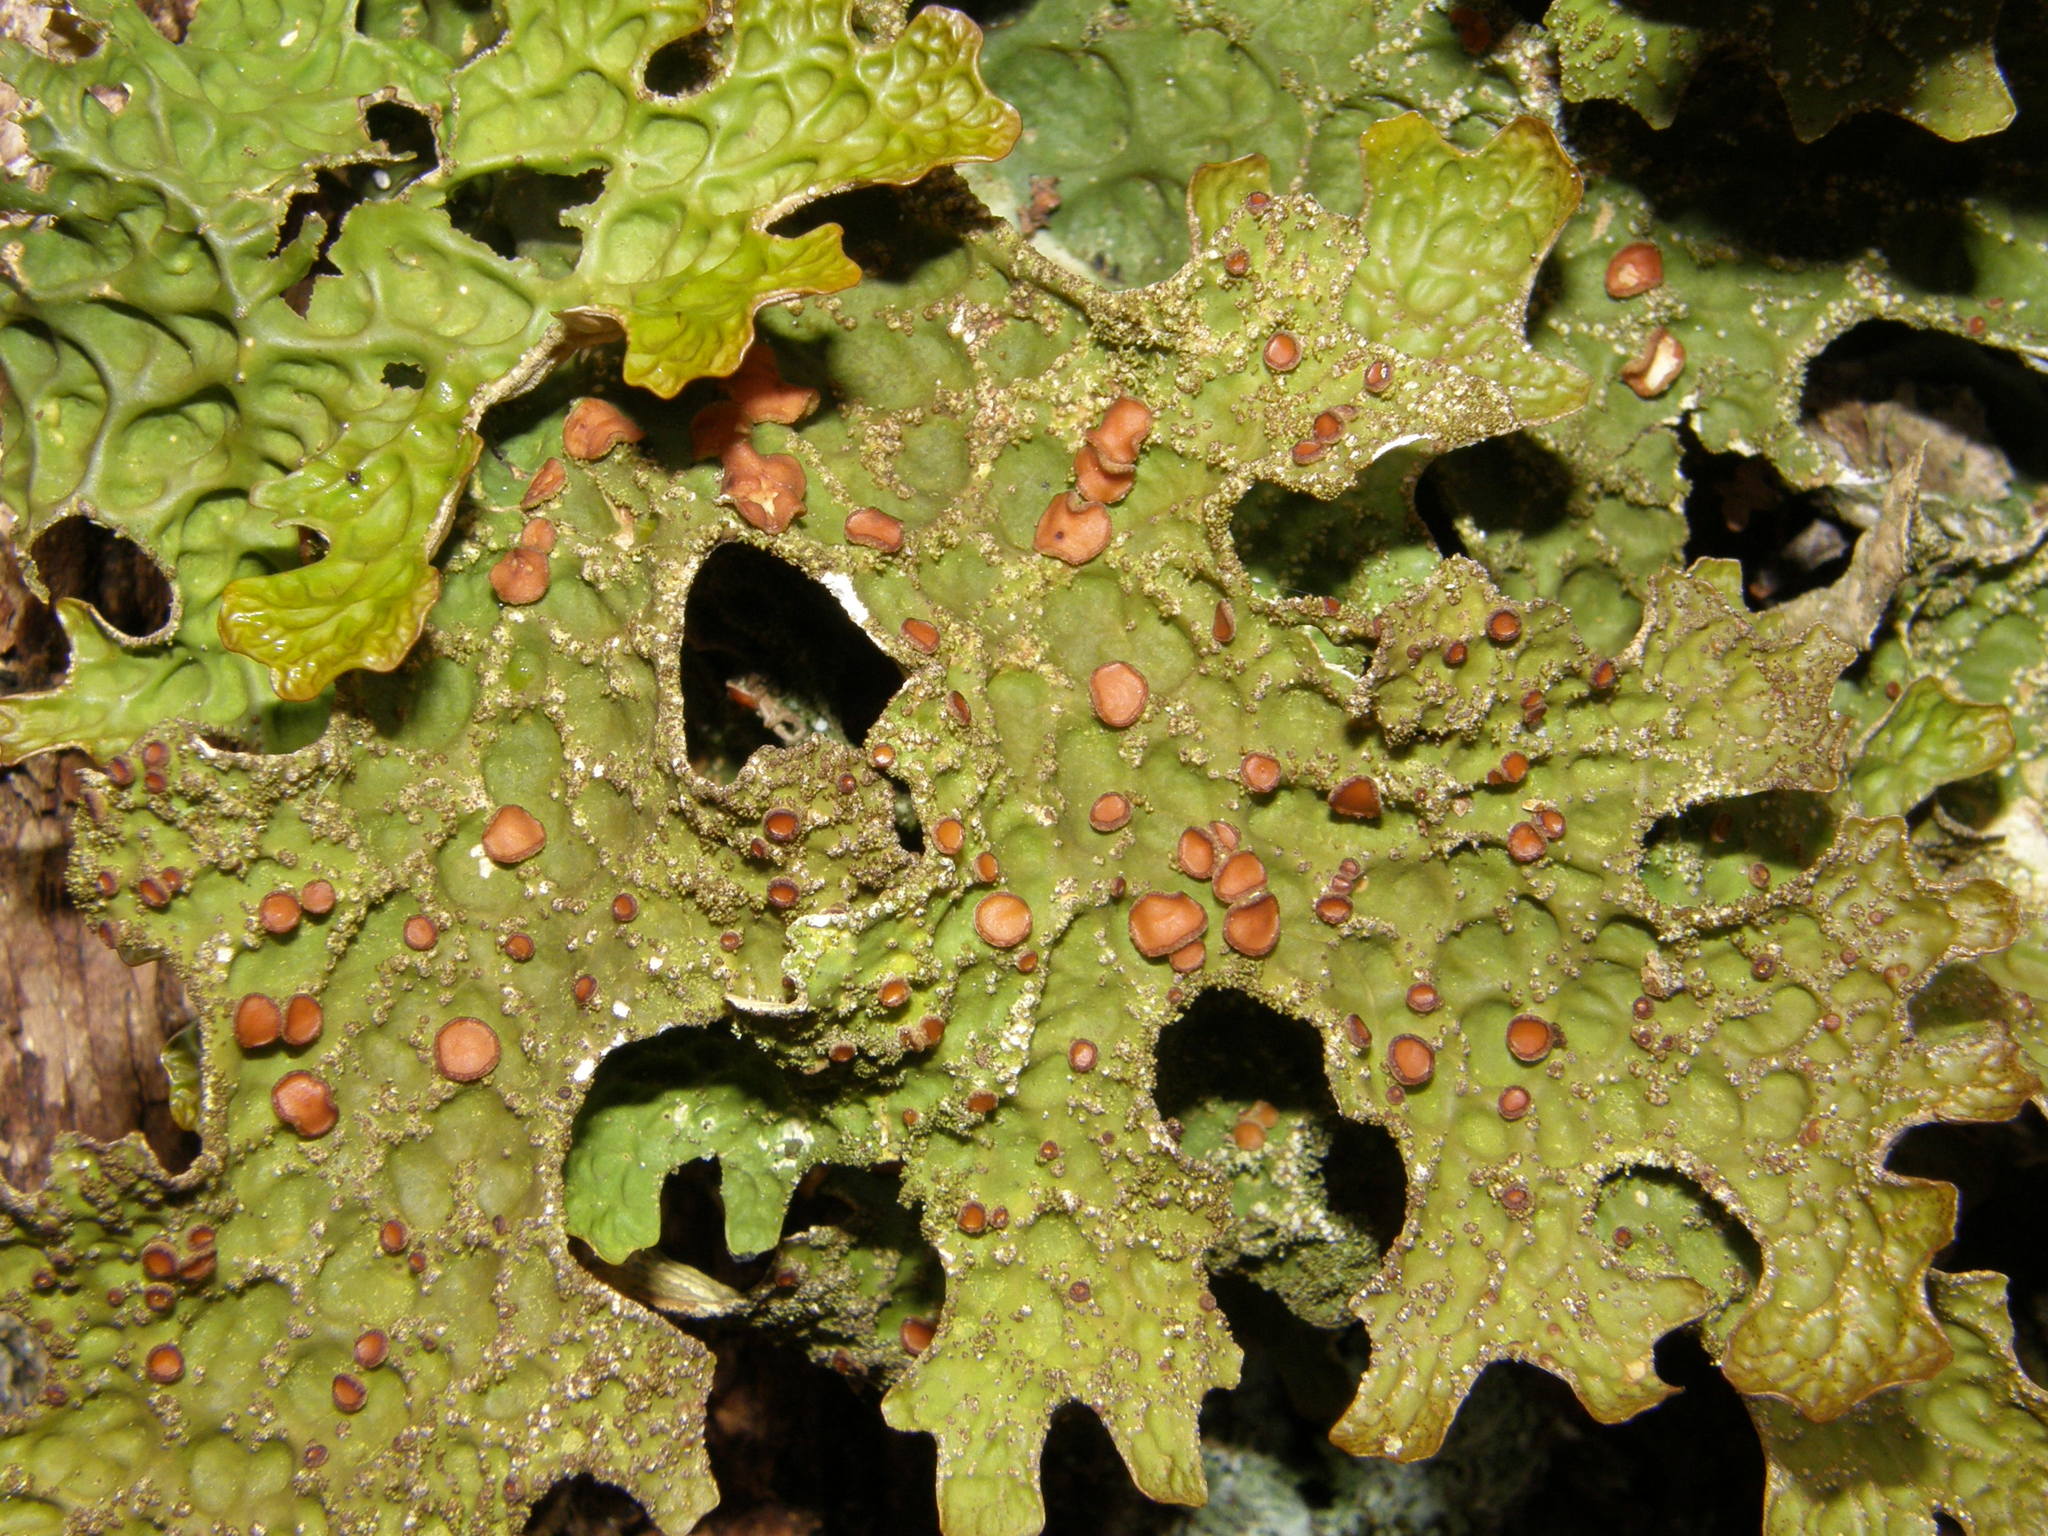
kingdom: Fungi
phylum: Ascomycota
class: Lecanoromycetes
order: Peltigerales
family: Lobariaceae
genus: Lobaria
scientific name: Lobaria pulmonaria
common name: Lungwort
